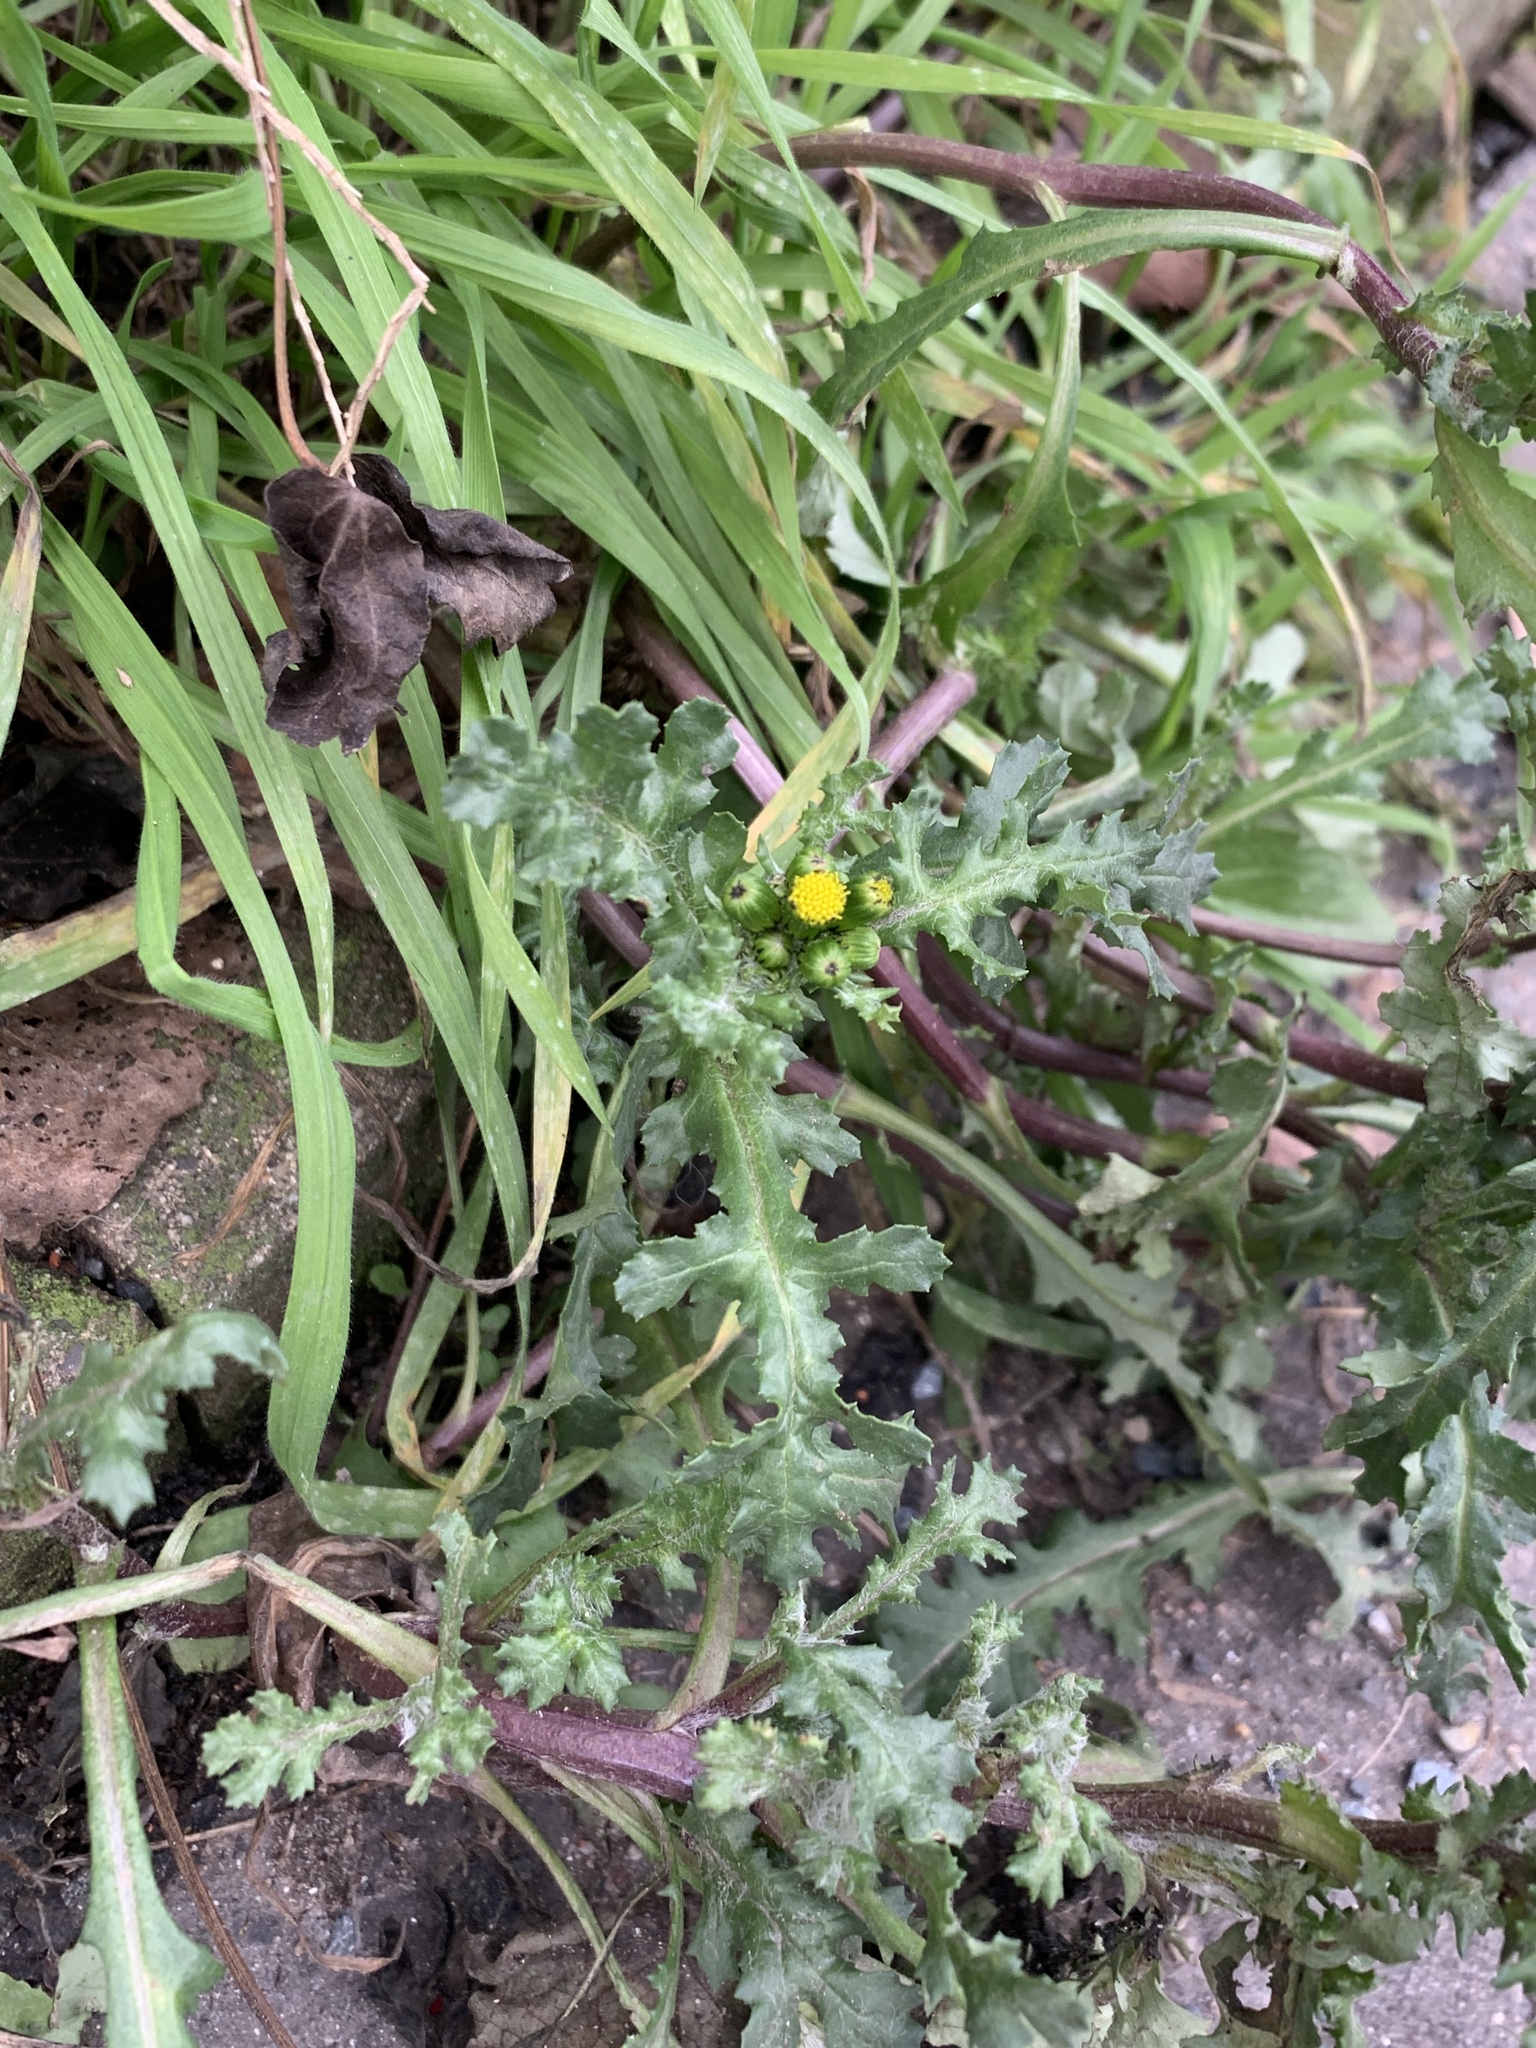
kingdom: Plantae
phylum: Tracheophyta
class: Magnoliopsida
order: Asterales
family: Asteraceae
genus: Senecio
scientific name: Senecio vulgaris
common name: Old-man-in-the-spring
